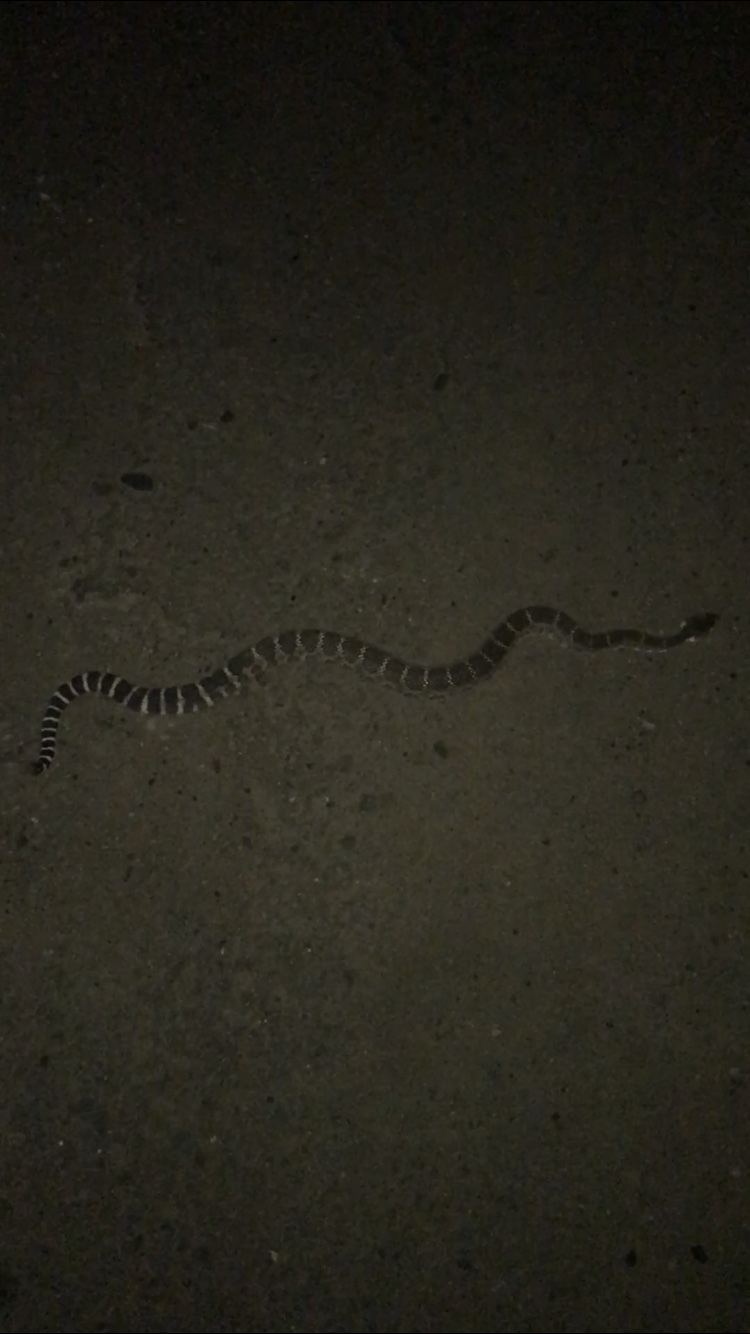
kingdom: Animalia
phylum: Chordata
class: Squamata
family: Viperidae
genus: Crotalus
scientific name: Crotalus oreganus
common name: Abyssus
